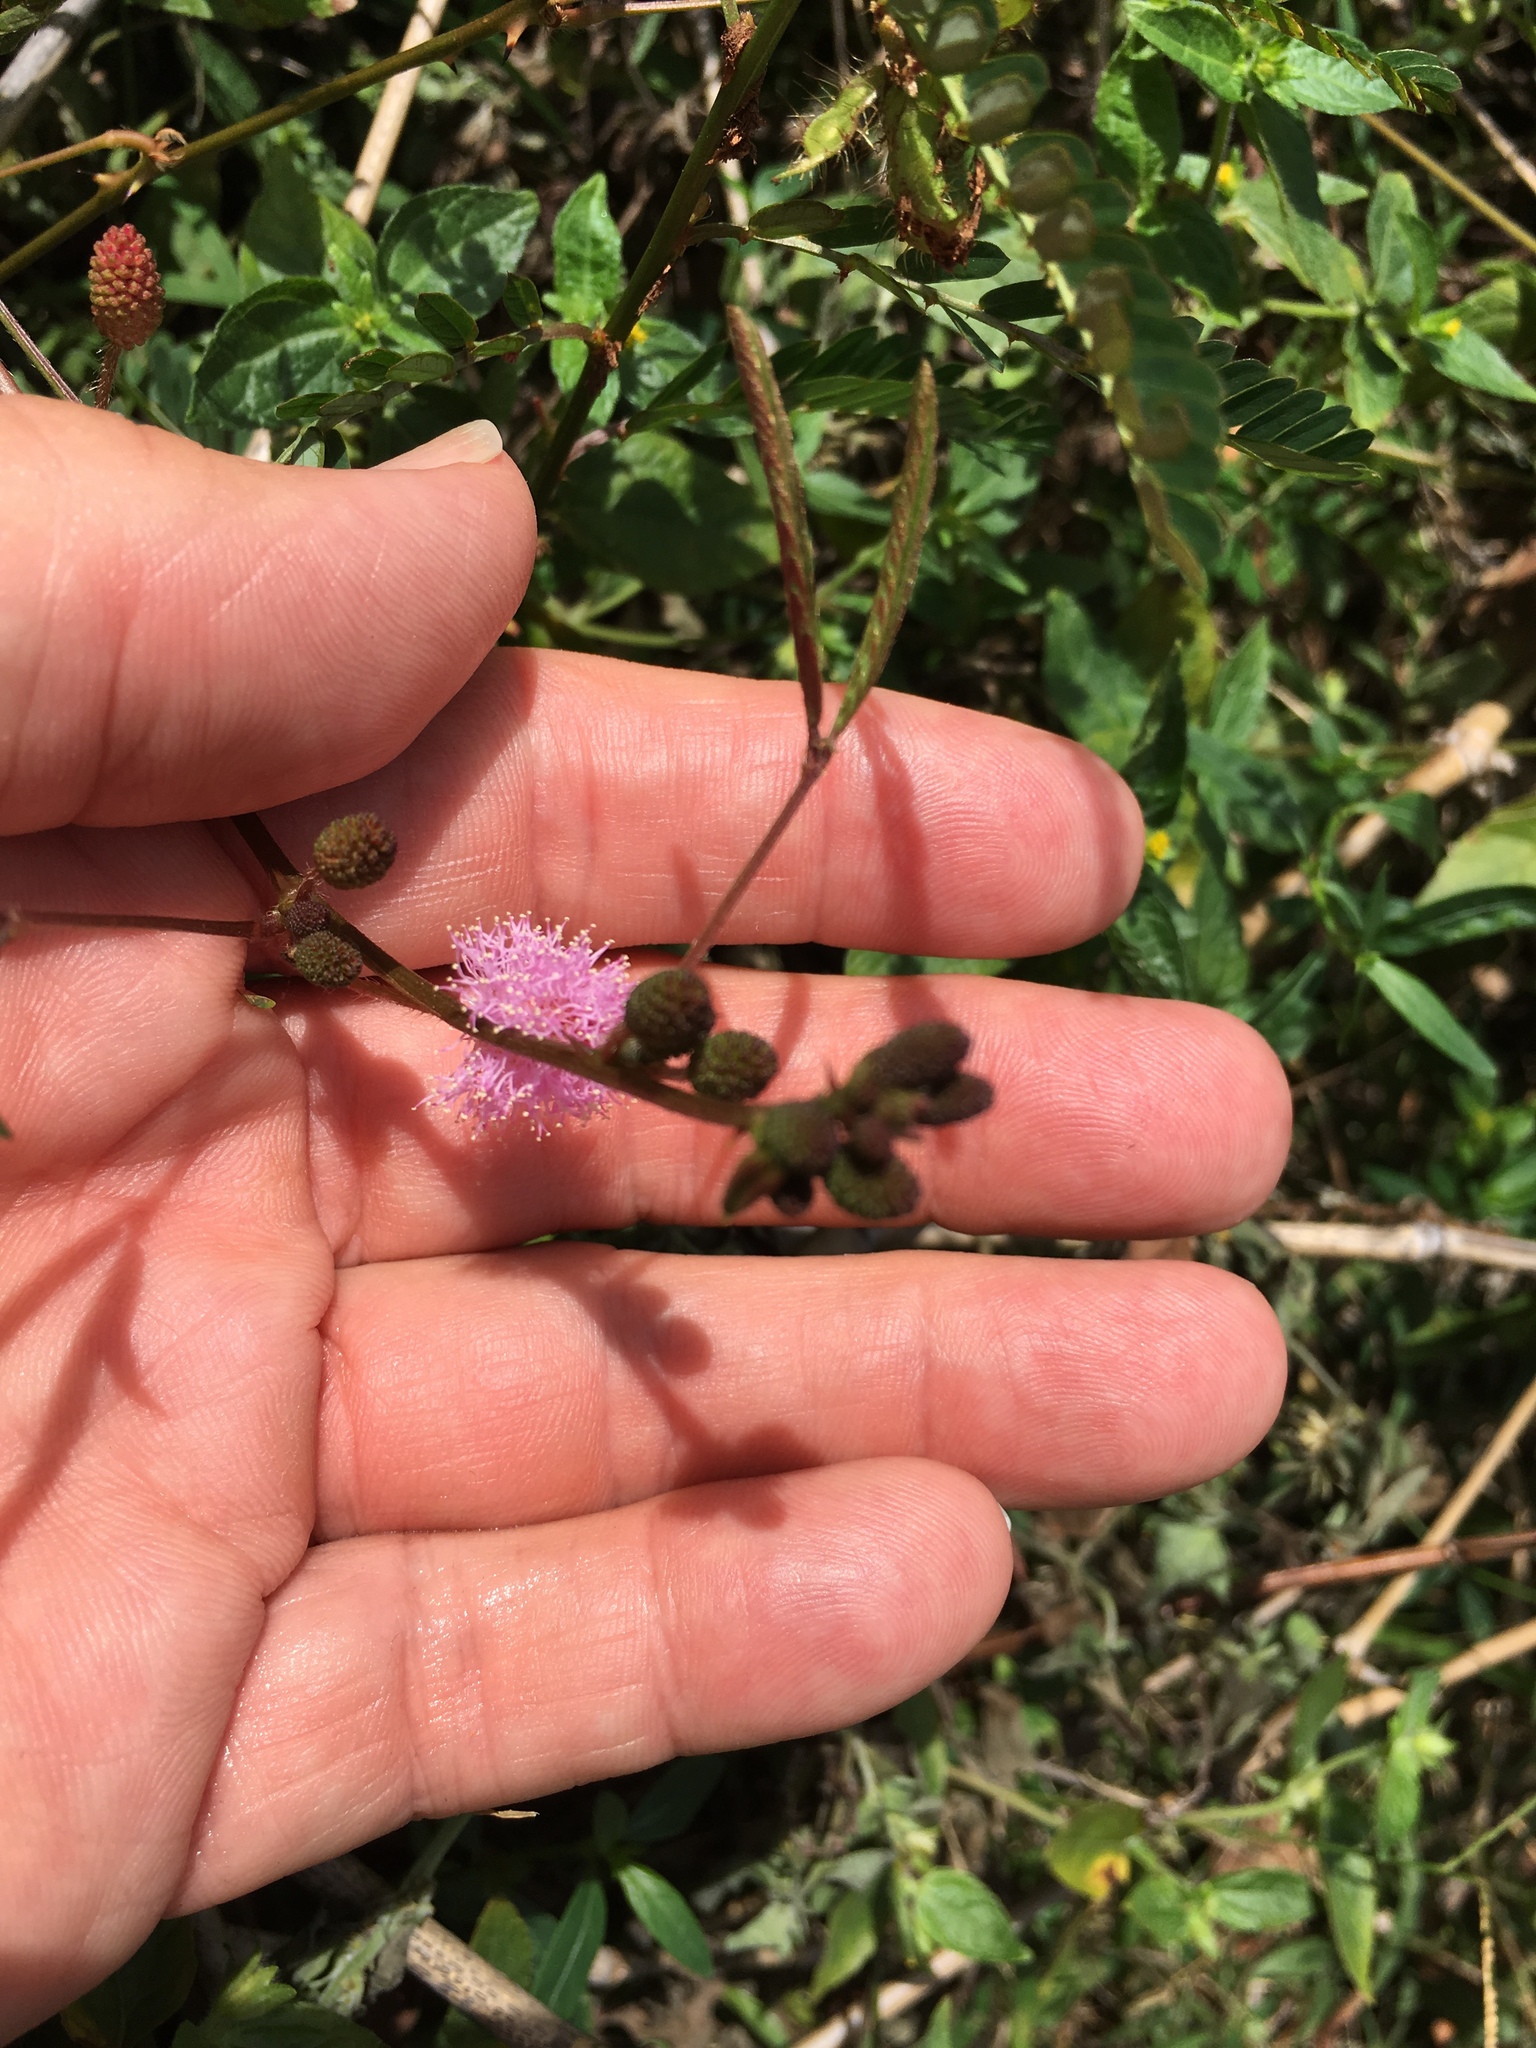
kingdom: Plantae
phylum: Tracheophyta
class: Magnoliopsida
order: Fabales
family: Fabaceae
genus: Mimosa
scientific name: Mimosa pudica
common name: Sensitive plant
